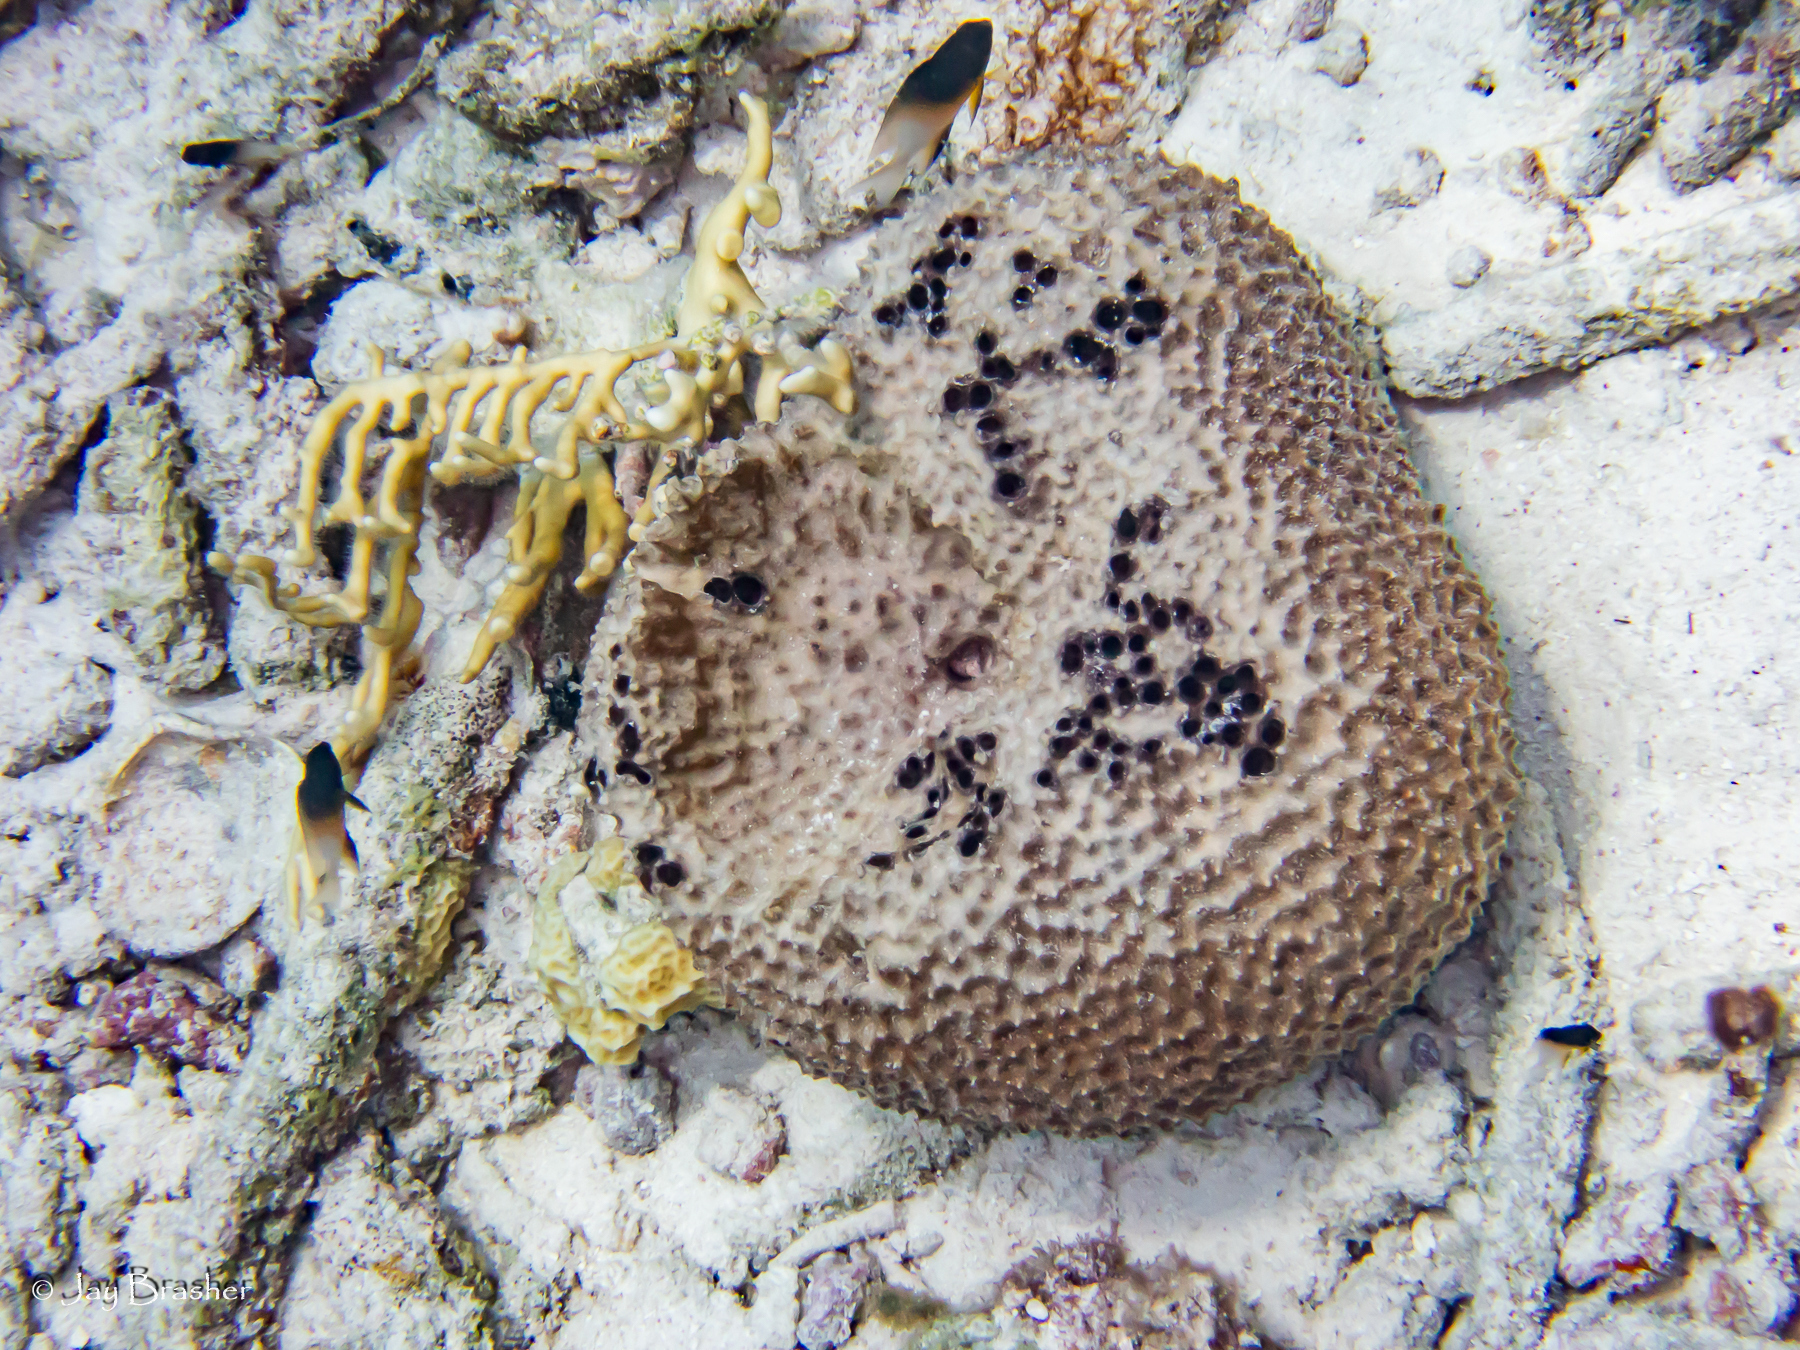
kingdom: Animalia
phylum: Porifera
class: Demospongiae
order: Dictyoceratida
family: Irciniidae
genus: Ircinia
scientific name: Ircinia felix
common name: Stinker sponge
